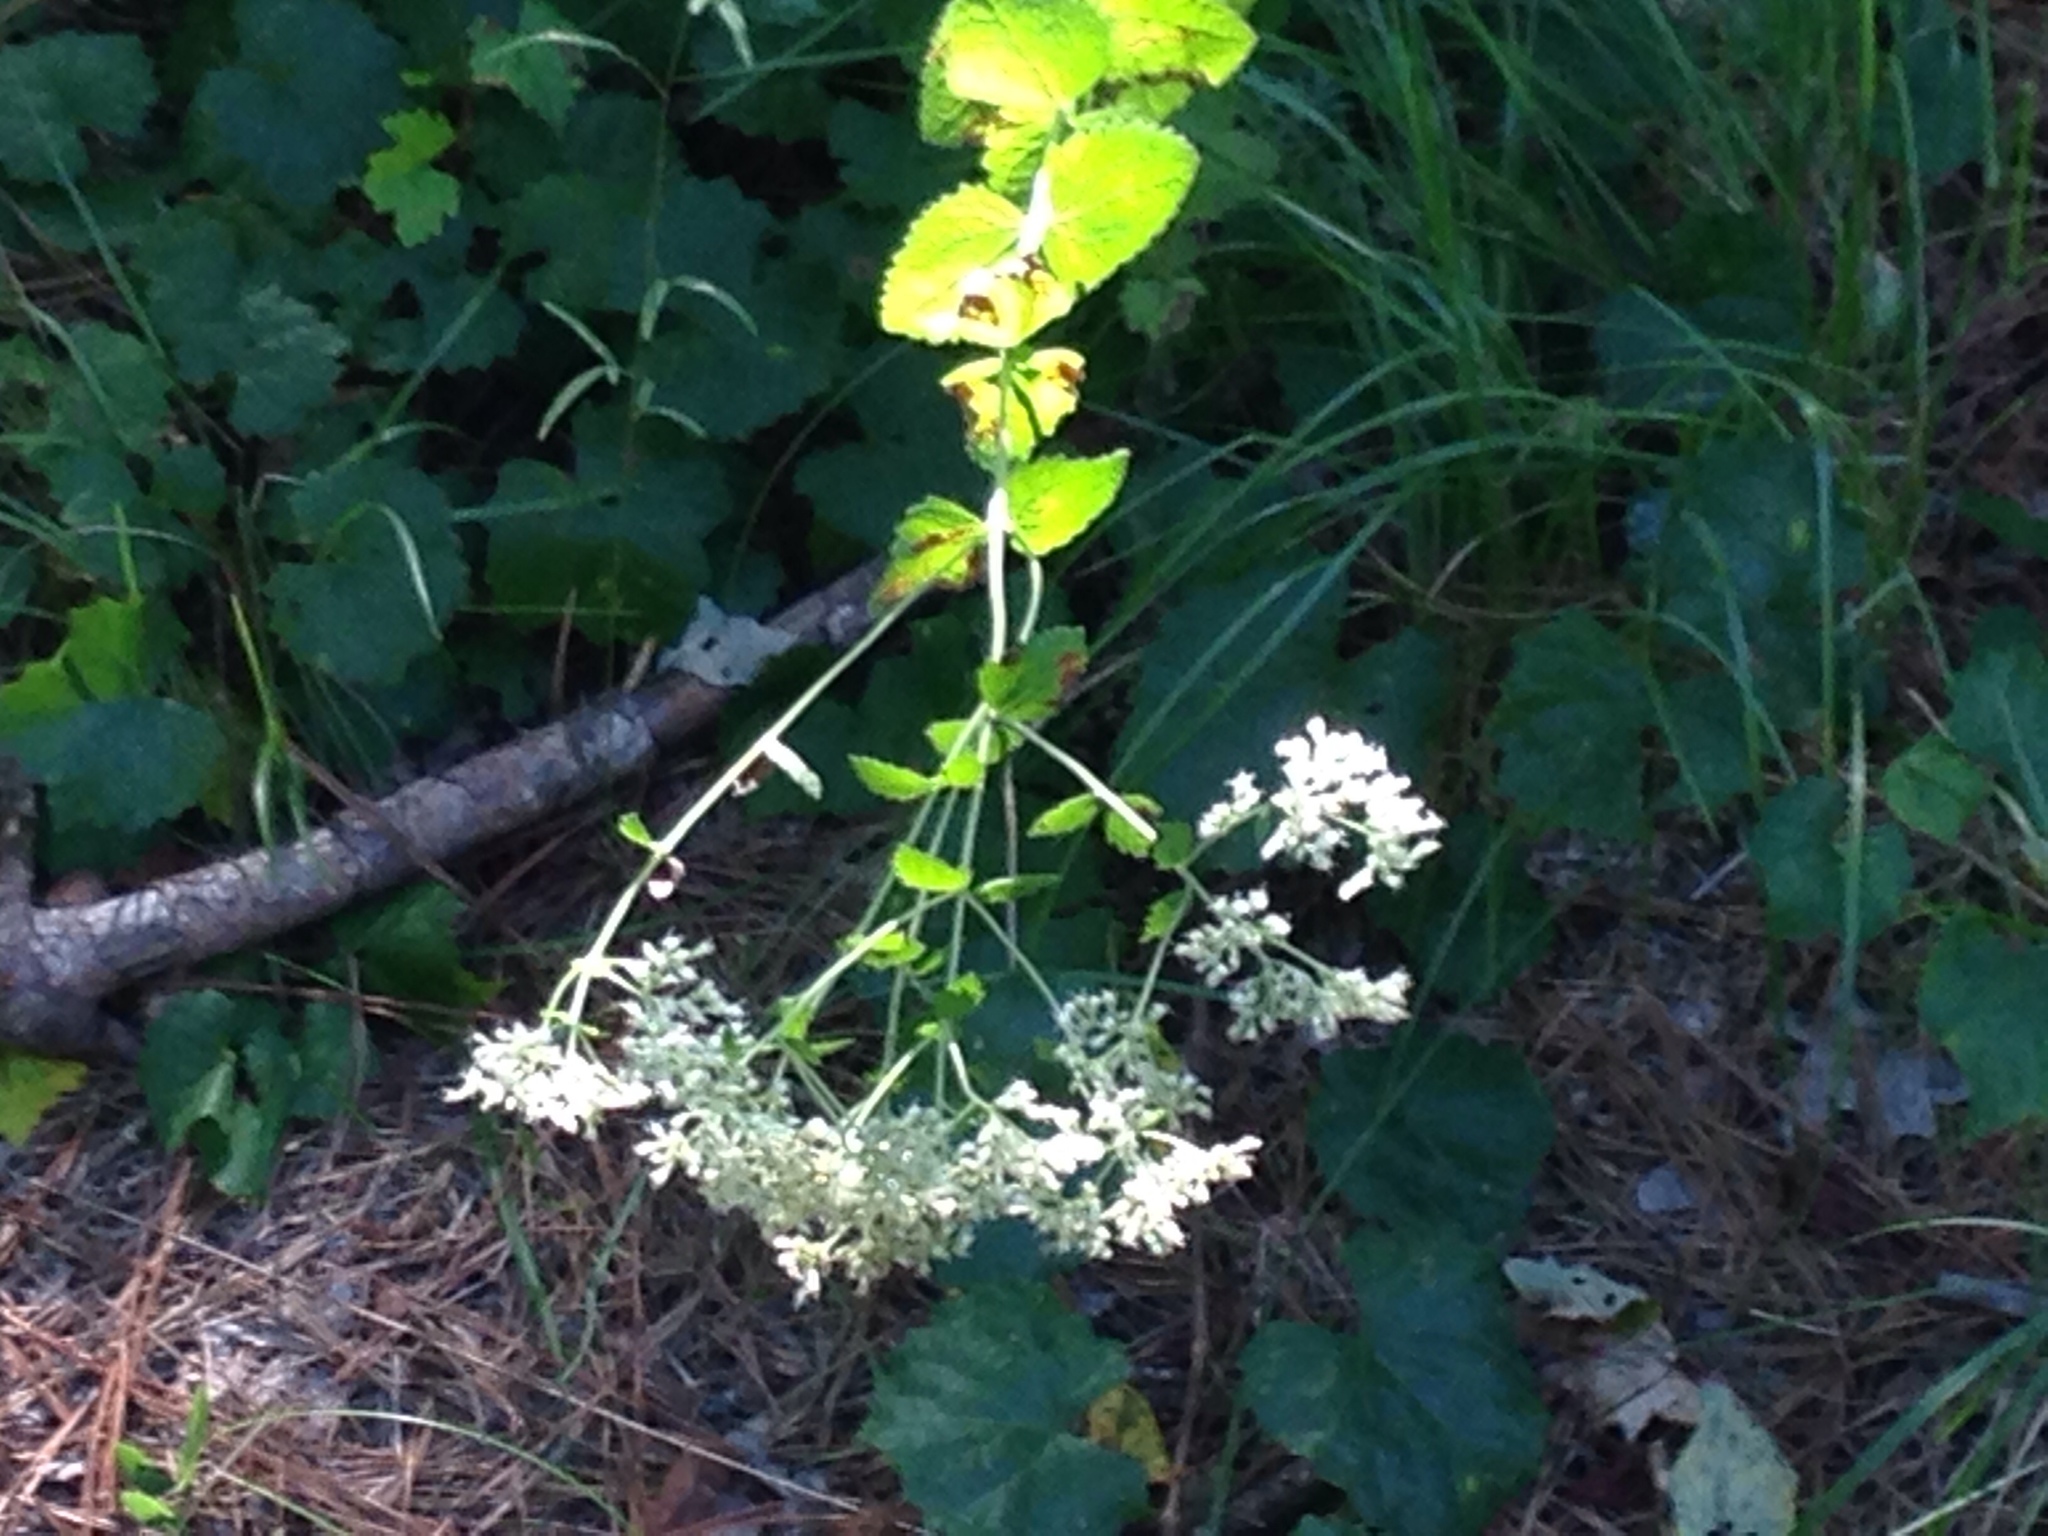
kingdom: Plantae
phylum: Tracheophyta
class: Magnoliopsida
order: Asterales
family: Asteraceae
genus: Eupatorium
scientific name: Eupatorium rotundifolium
